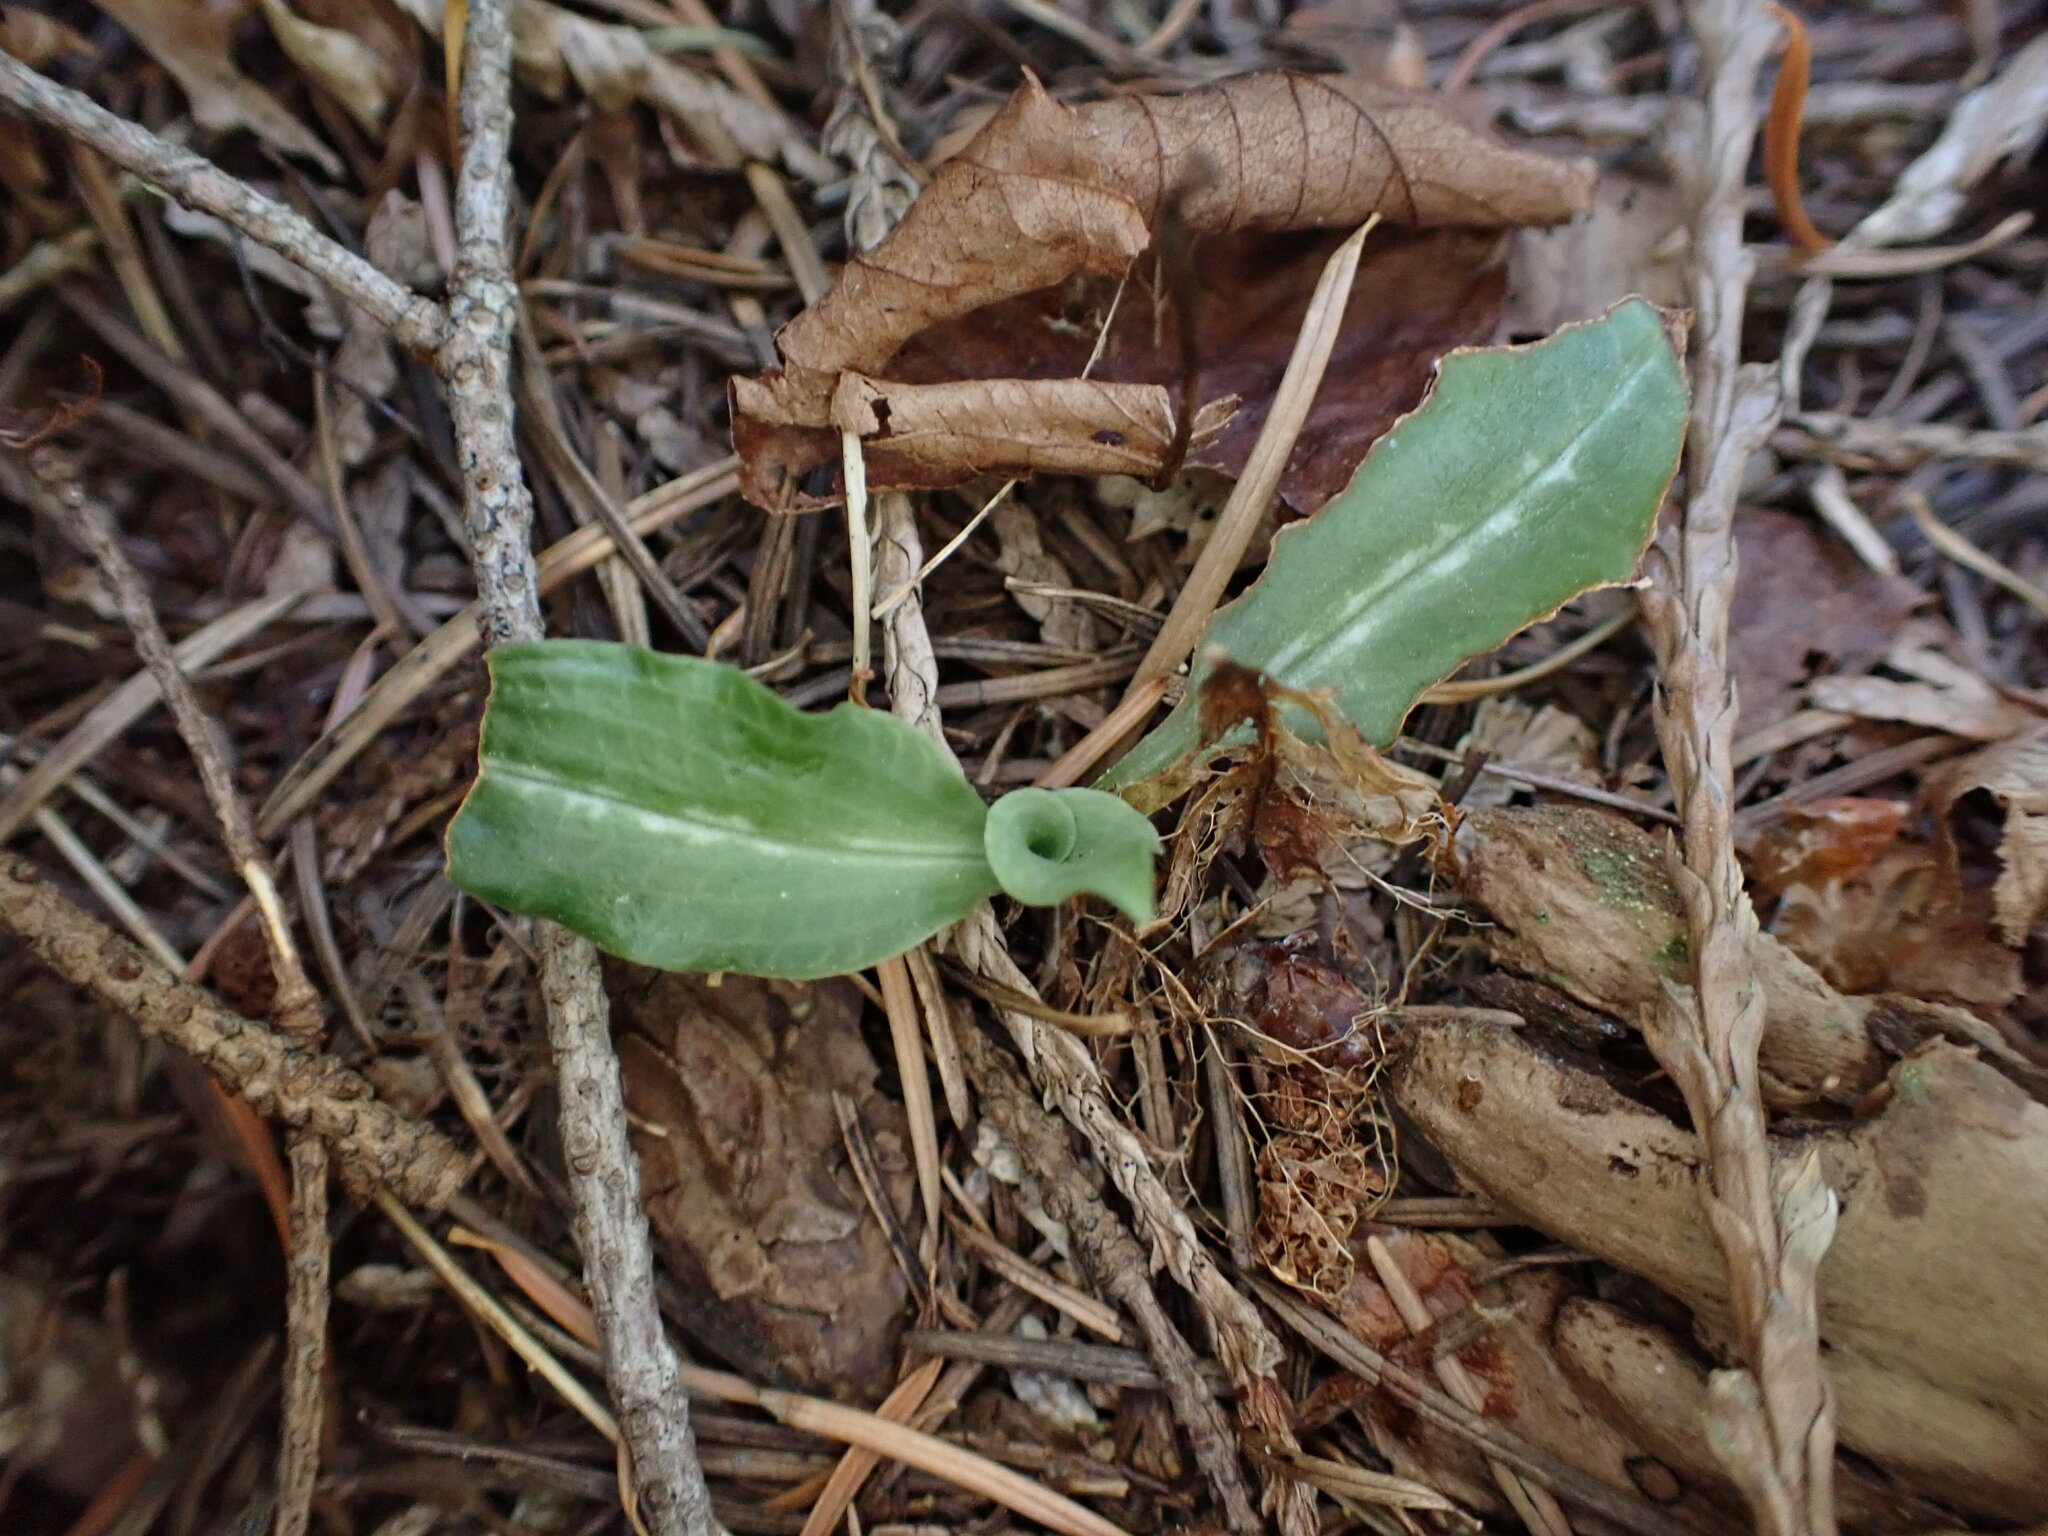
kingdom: Plantae
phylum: Tracheophyta
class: Liliopsida
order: Asparagales
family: Orchidaceae
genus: Goodyera
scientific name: Goodyera oblongifolia
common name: Giant rattlesnake-plantain
